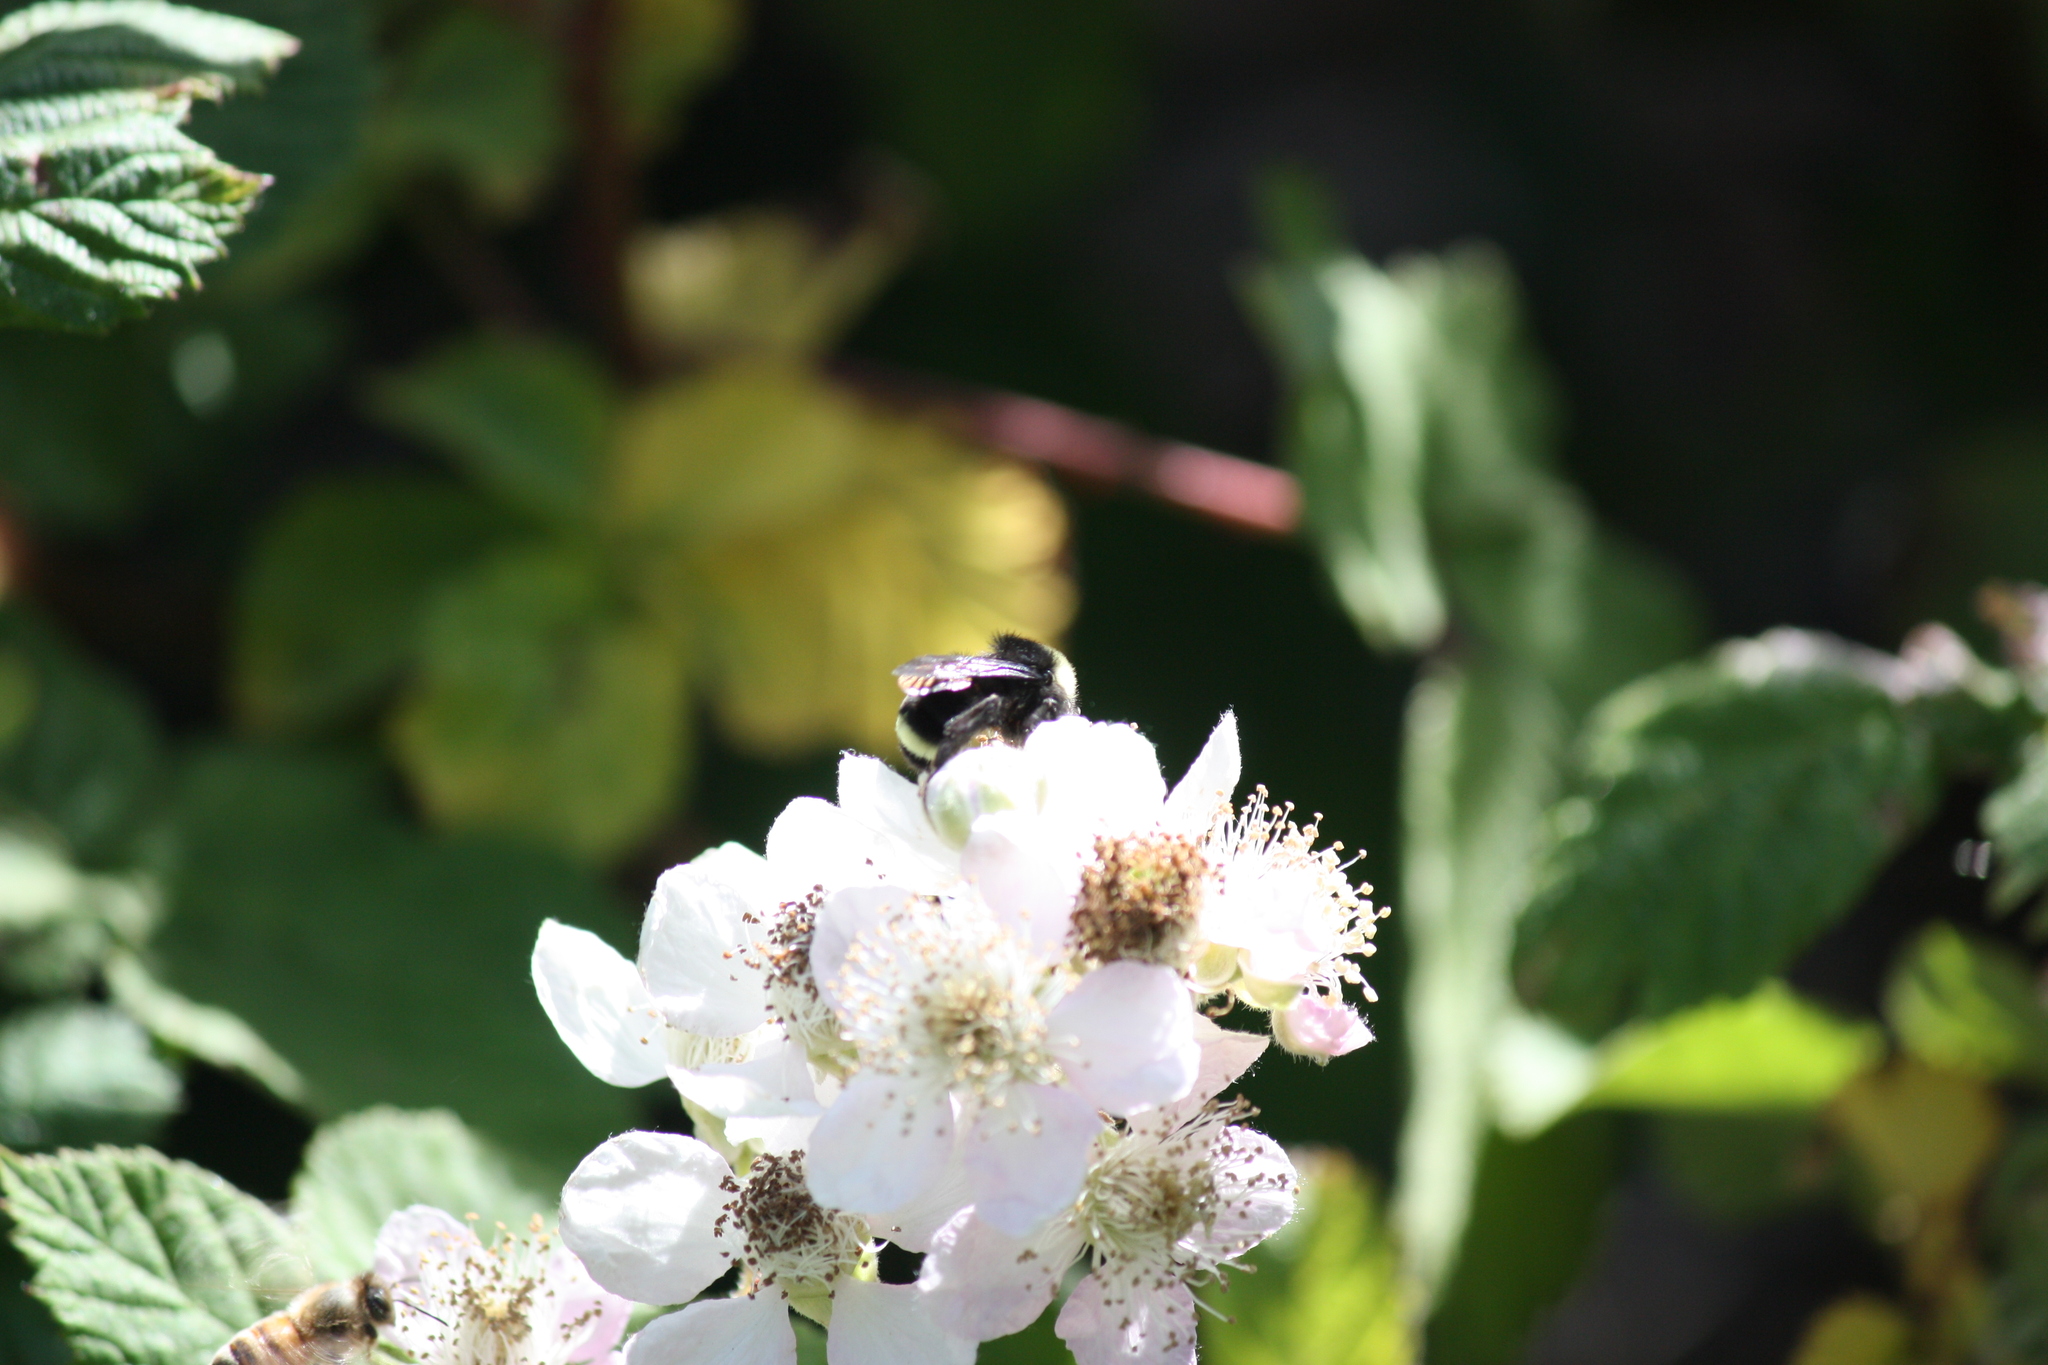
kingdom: Animalia
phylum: Arthropoda
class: Insecta
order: Hymenoptera
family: Apidae
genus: Bombus
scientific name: Bombus vosnesenskii
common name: Vosnesensky bumble bee
